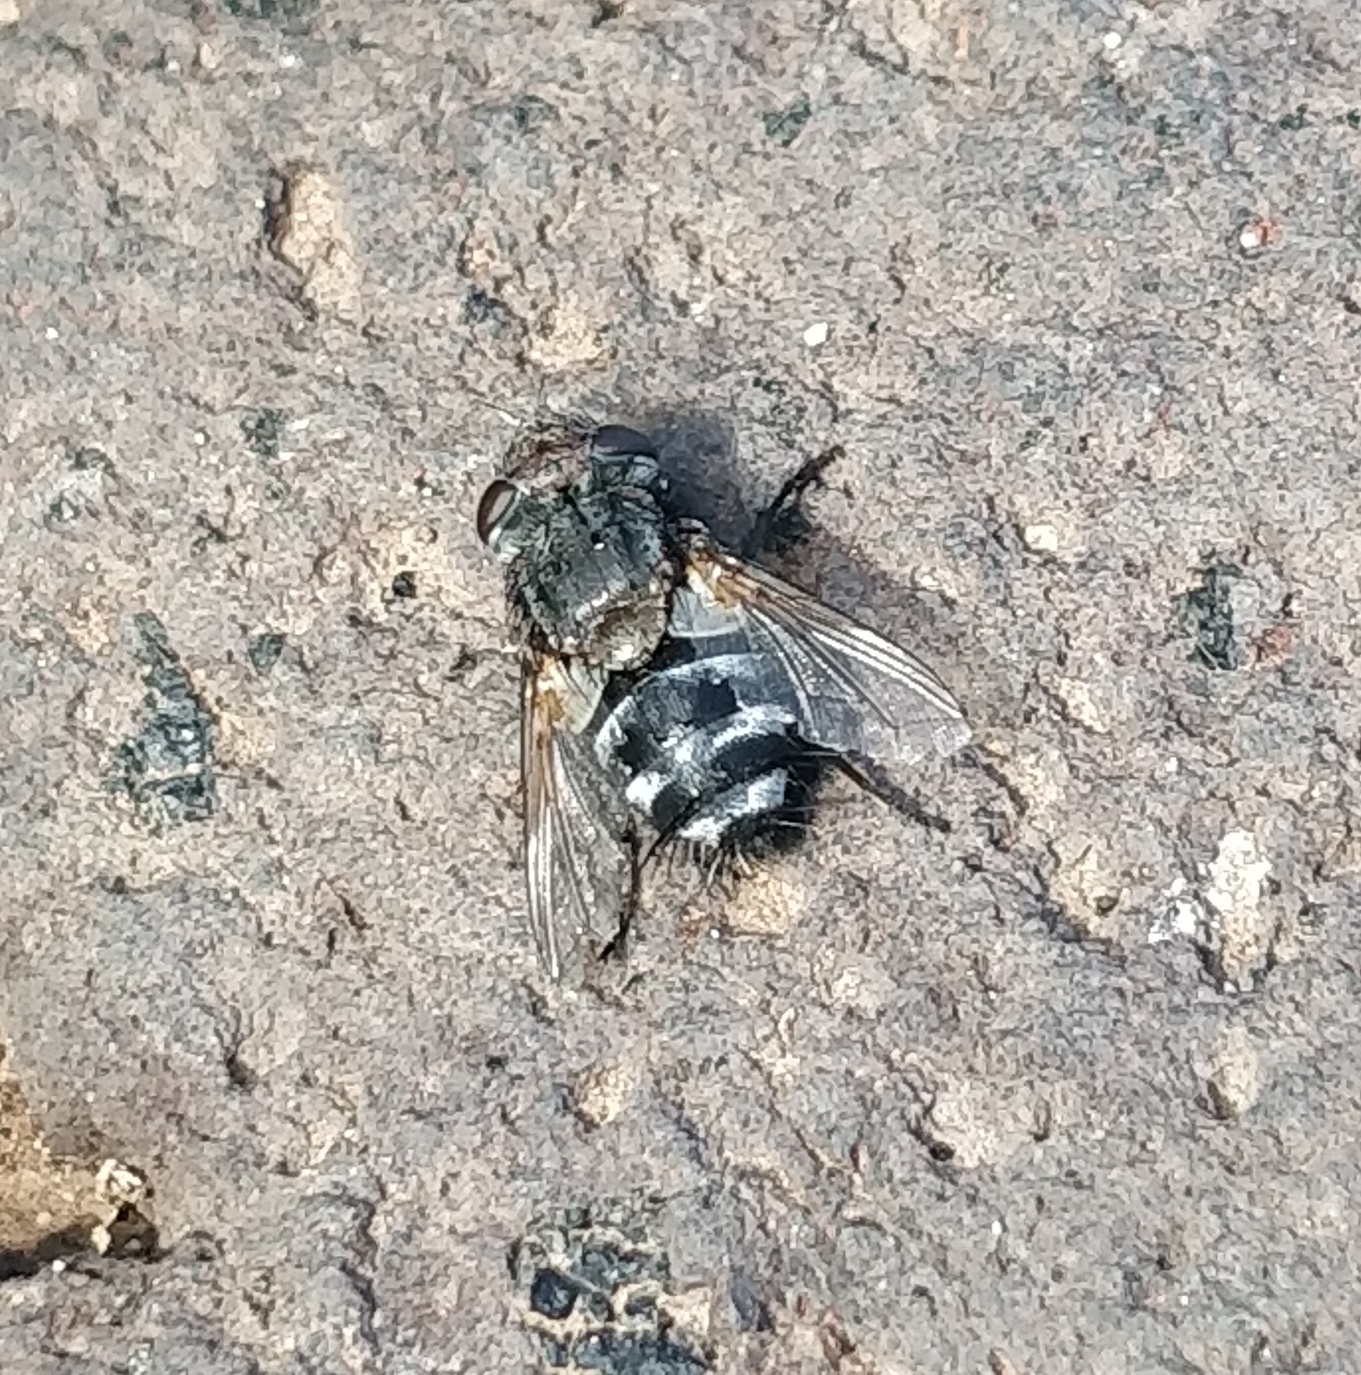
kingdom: Animalia
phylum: Arthropoda
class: Insecta
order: Diptera
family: Tachinidae
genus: Pseudogonia
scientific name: Pseudogonia fasciata
